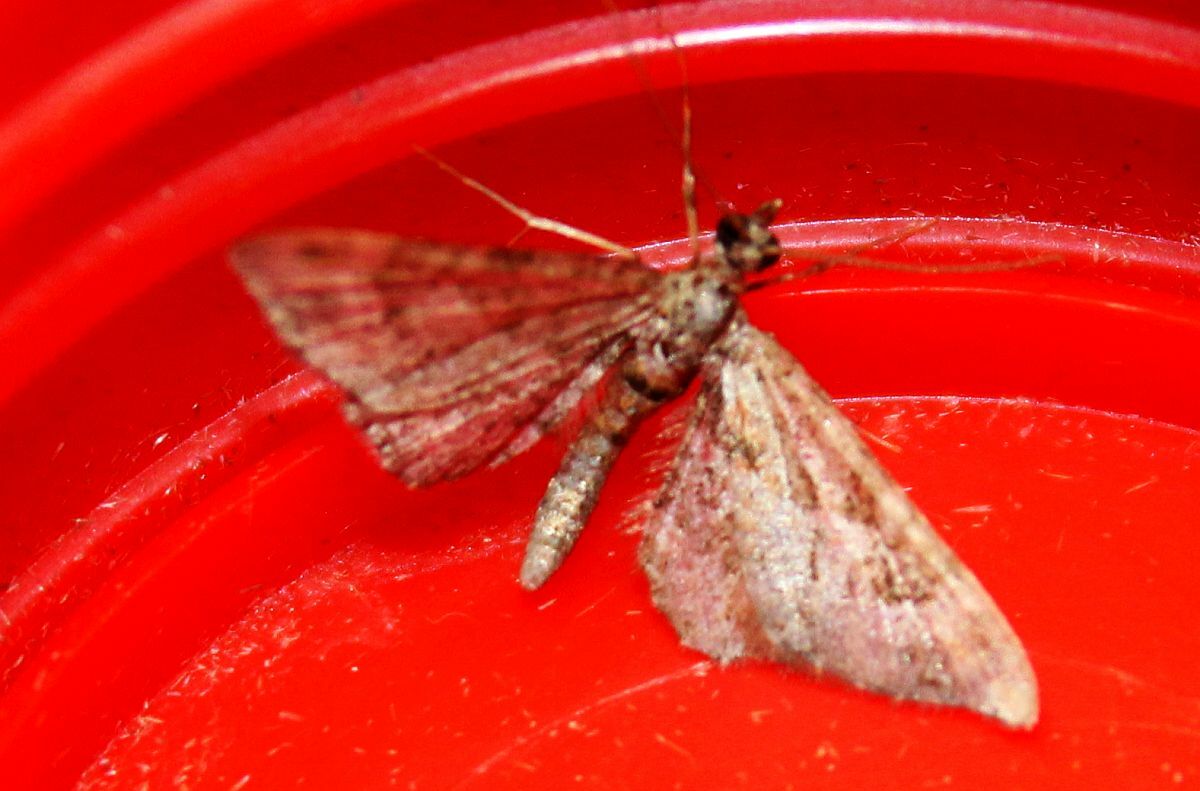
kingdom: Animalia
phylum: Arthropoda
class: Insecta
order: Lepidoptera
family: Geometridae
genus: Gymnoscelis
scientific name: Gymnoscelis rufifasciata
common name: Double-striped pug
